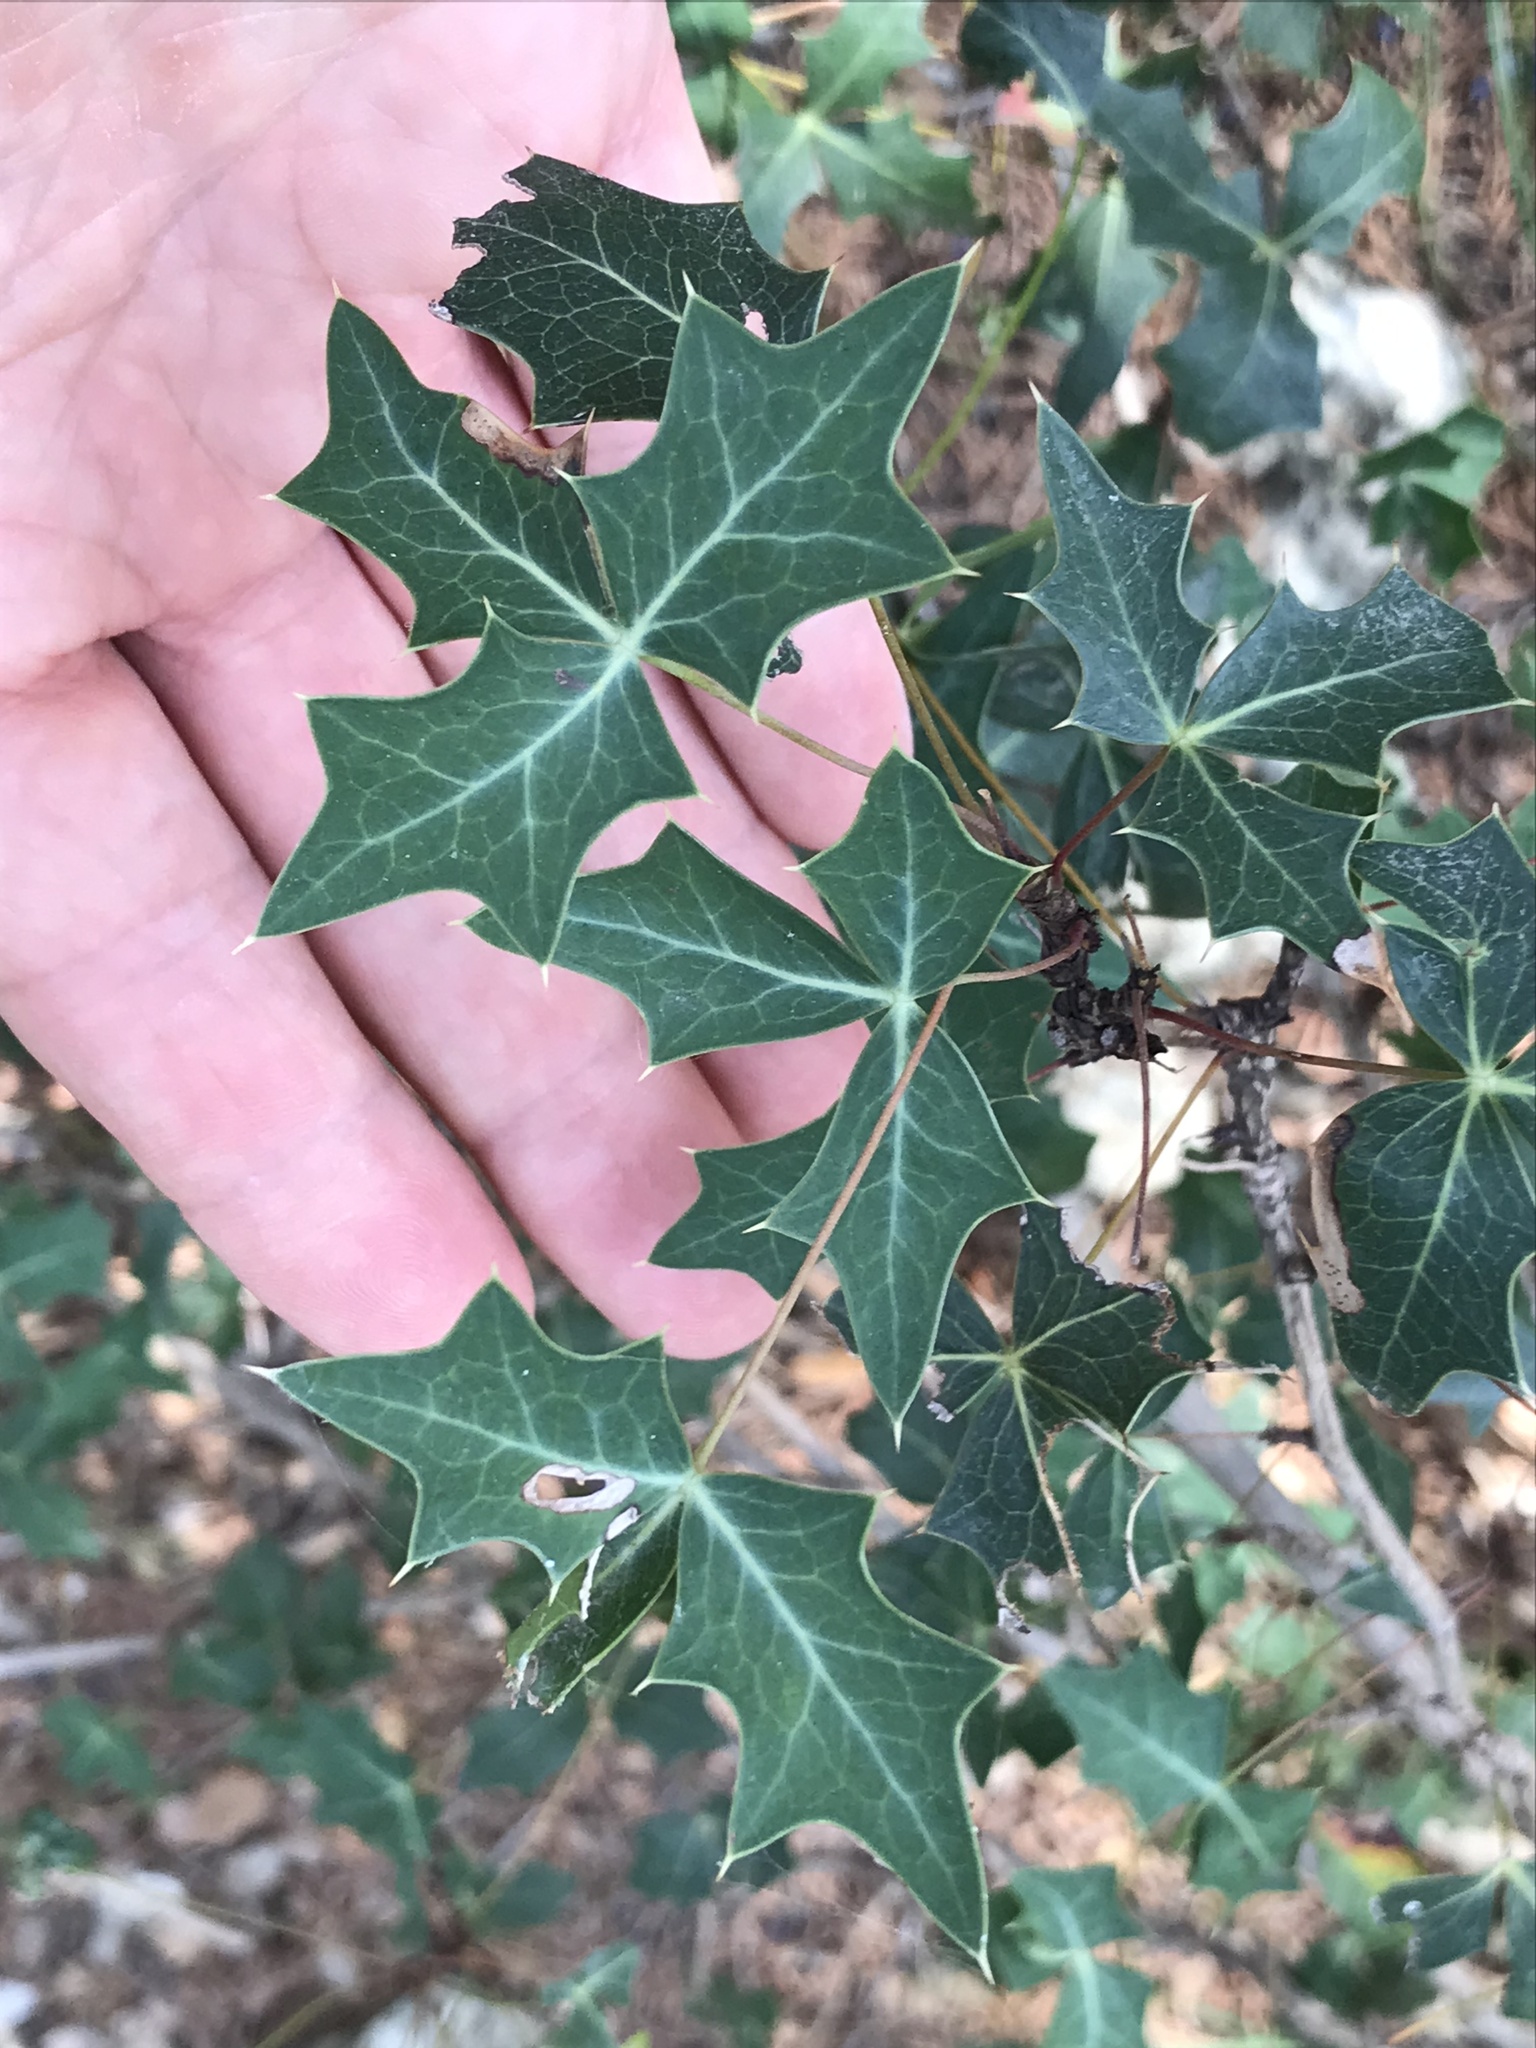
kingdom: Plantae
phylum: Tracheophyta
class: Magnoliopsida
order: Ranunculales
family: Berberidaceae
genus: Alloberberis
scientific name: Alloberberis trifoliolata
